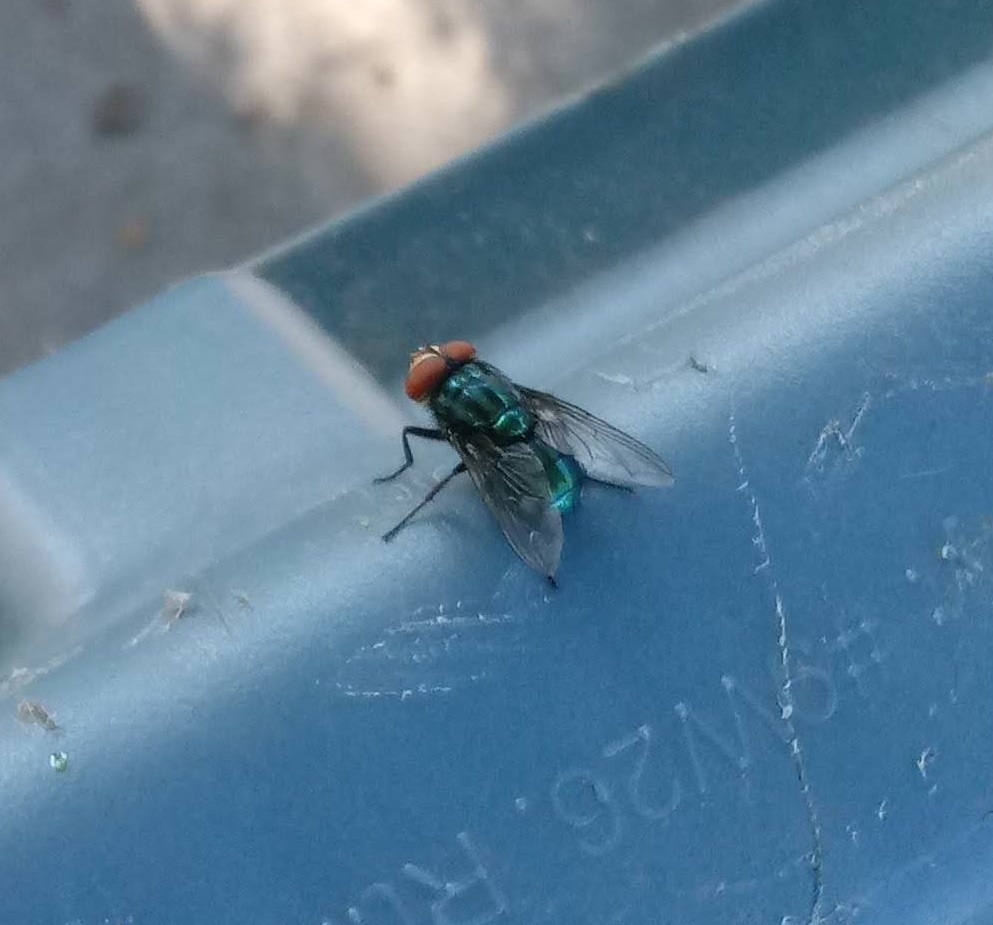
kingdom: Animalia
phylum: Arthropoda
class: Insecta
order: Diptera
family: Calliphoridae
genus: Cochliomyia
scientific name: Cochliomyia macellaria
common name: Secondary screwworm
